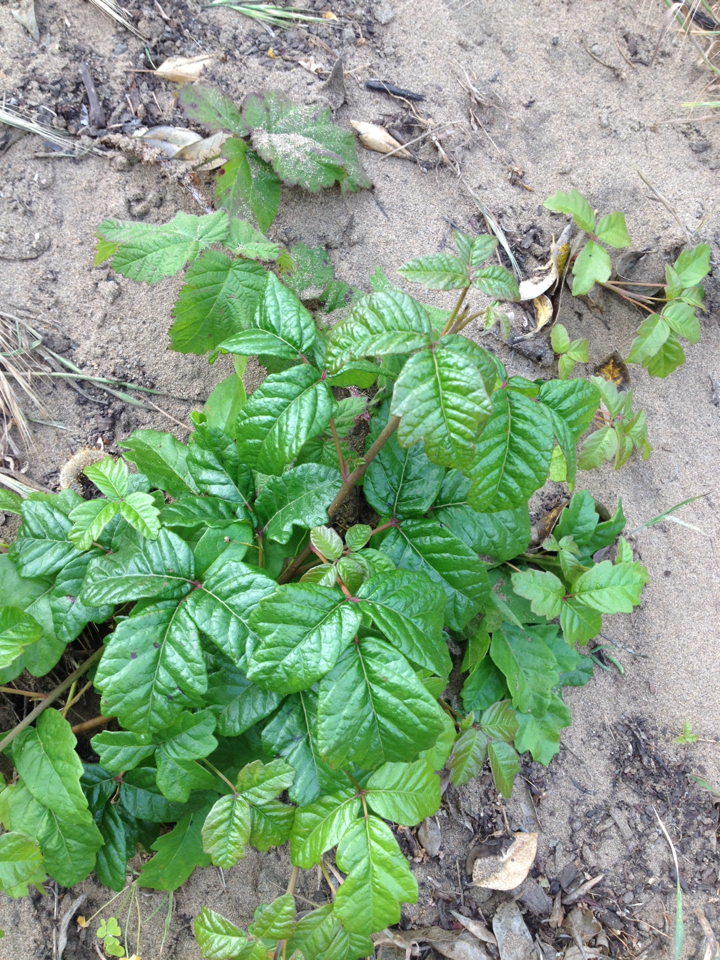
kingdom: Plantae
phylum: Tracheophyta
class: Magnoliopsida
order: Sapindales
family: Anacardiaceae
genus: Toxicodendron
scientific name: Toxicodendron diversilobum
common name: Pacific poison-oak
